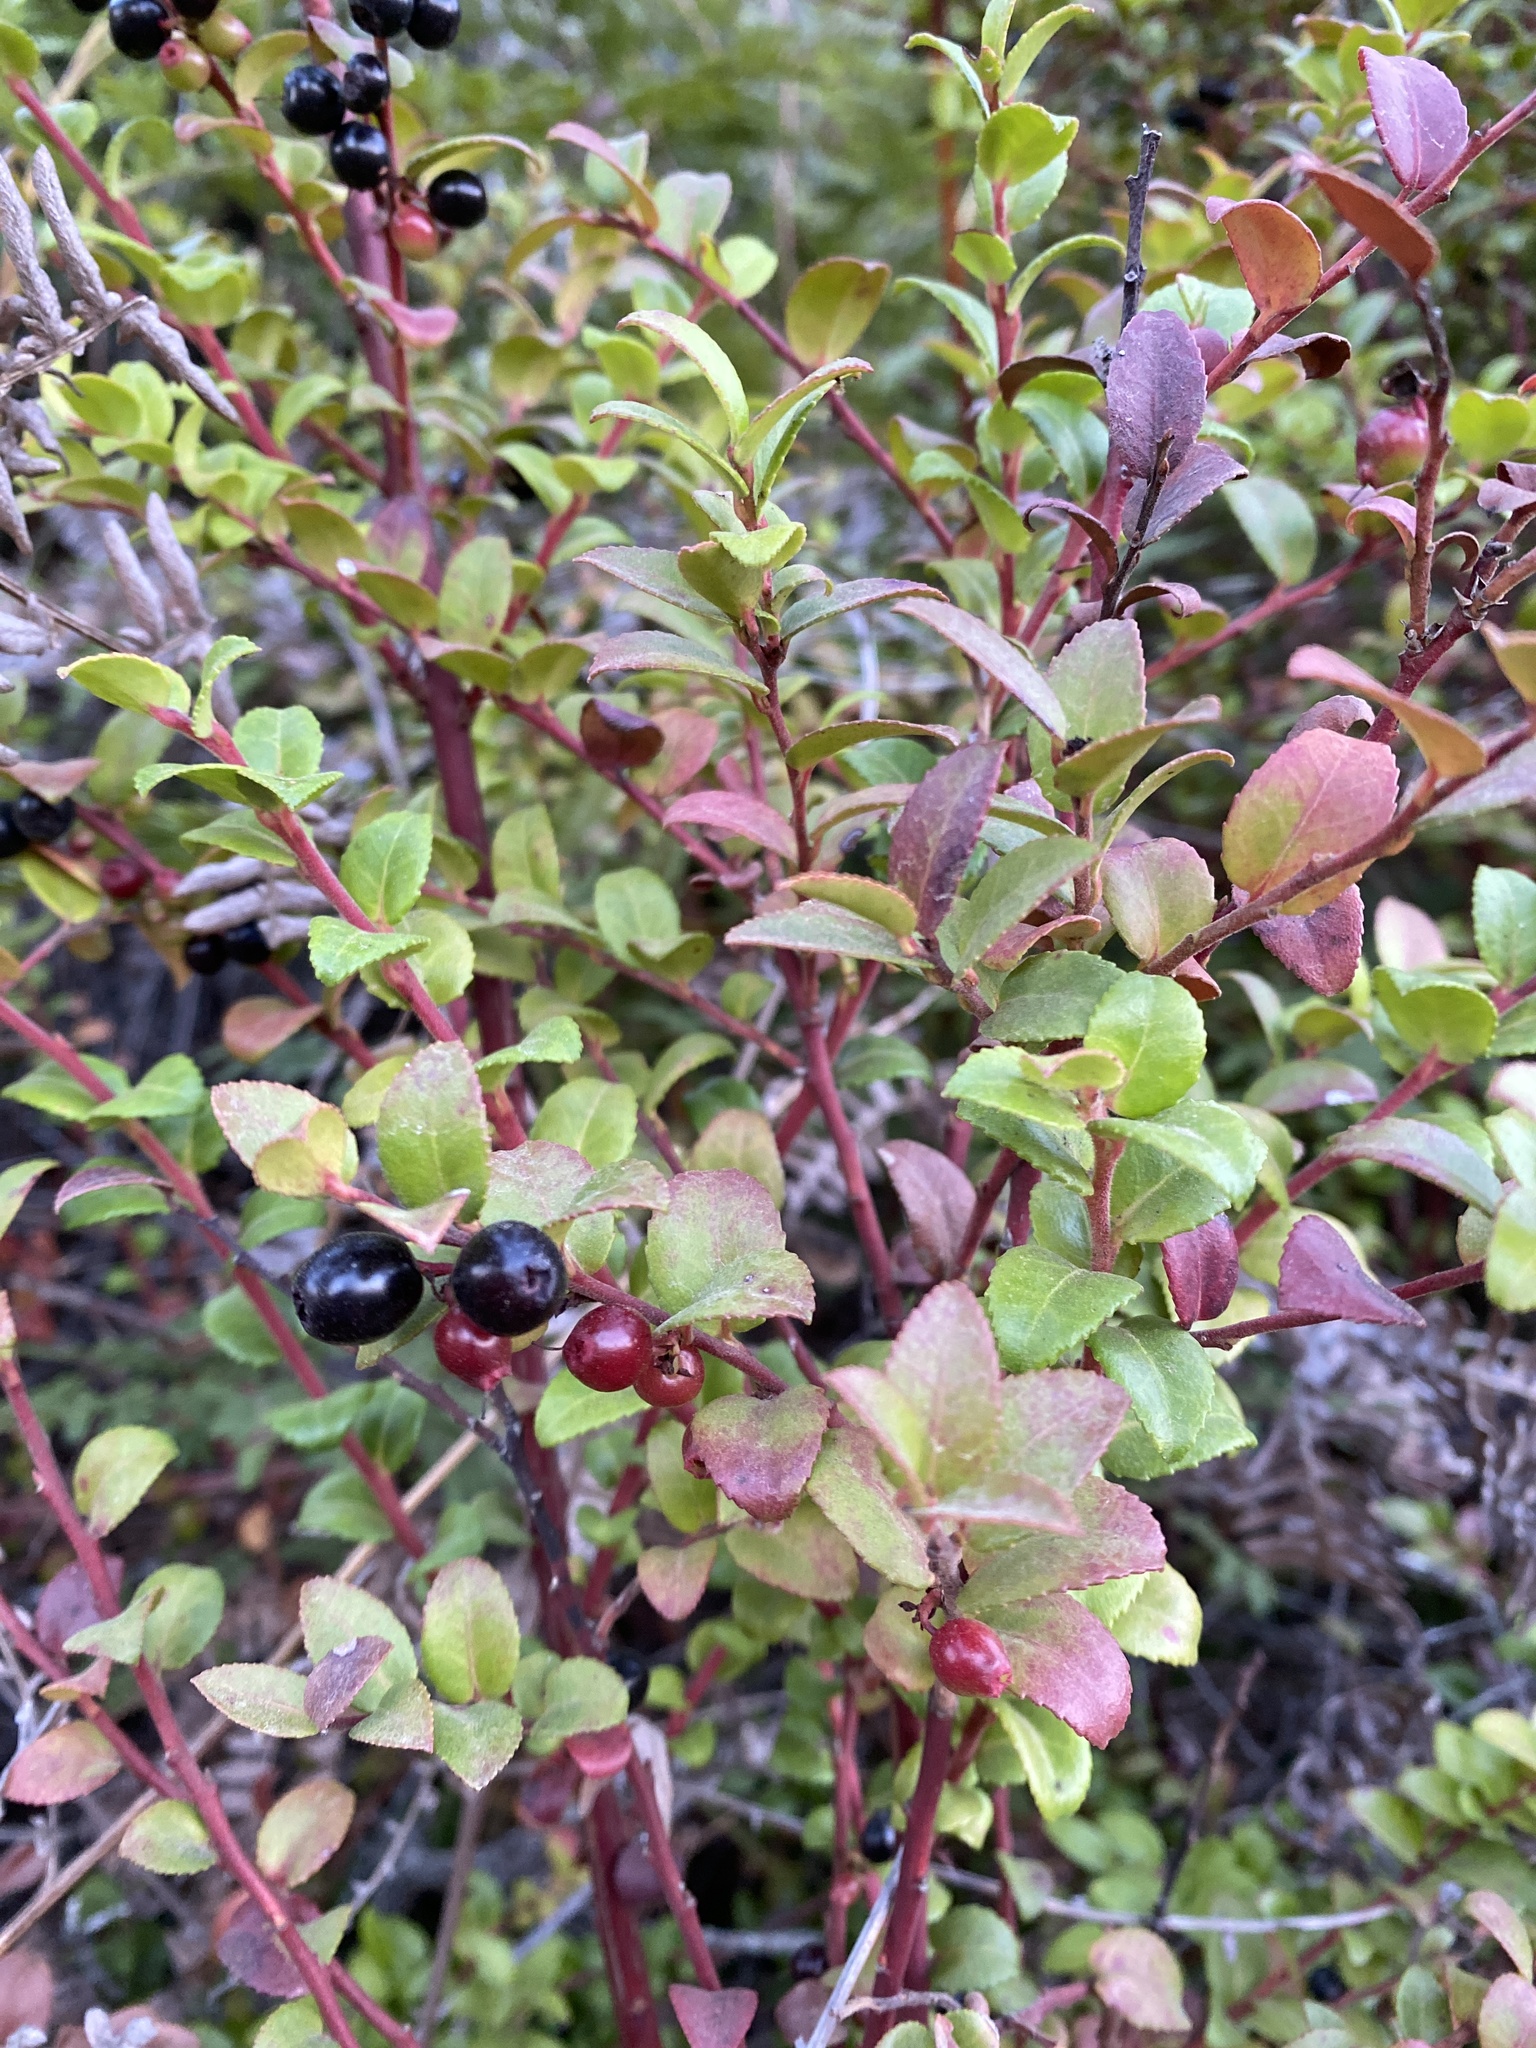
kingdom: Plantae
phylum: Tracheophyta
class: Magnoliopsida
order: Ericales
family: Ericaceae
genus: Vaccinium
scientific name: Vaccinium ovatum
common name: California-huckleberry
